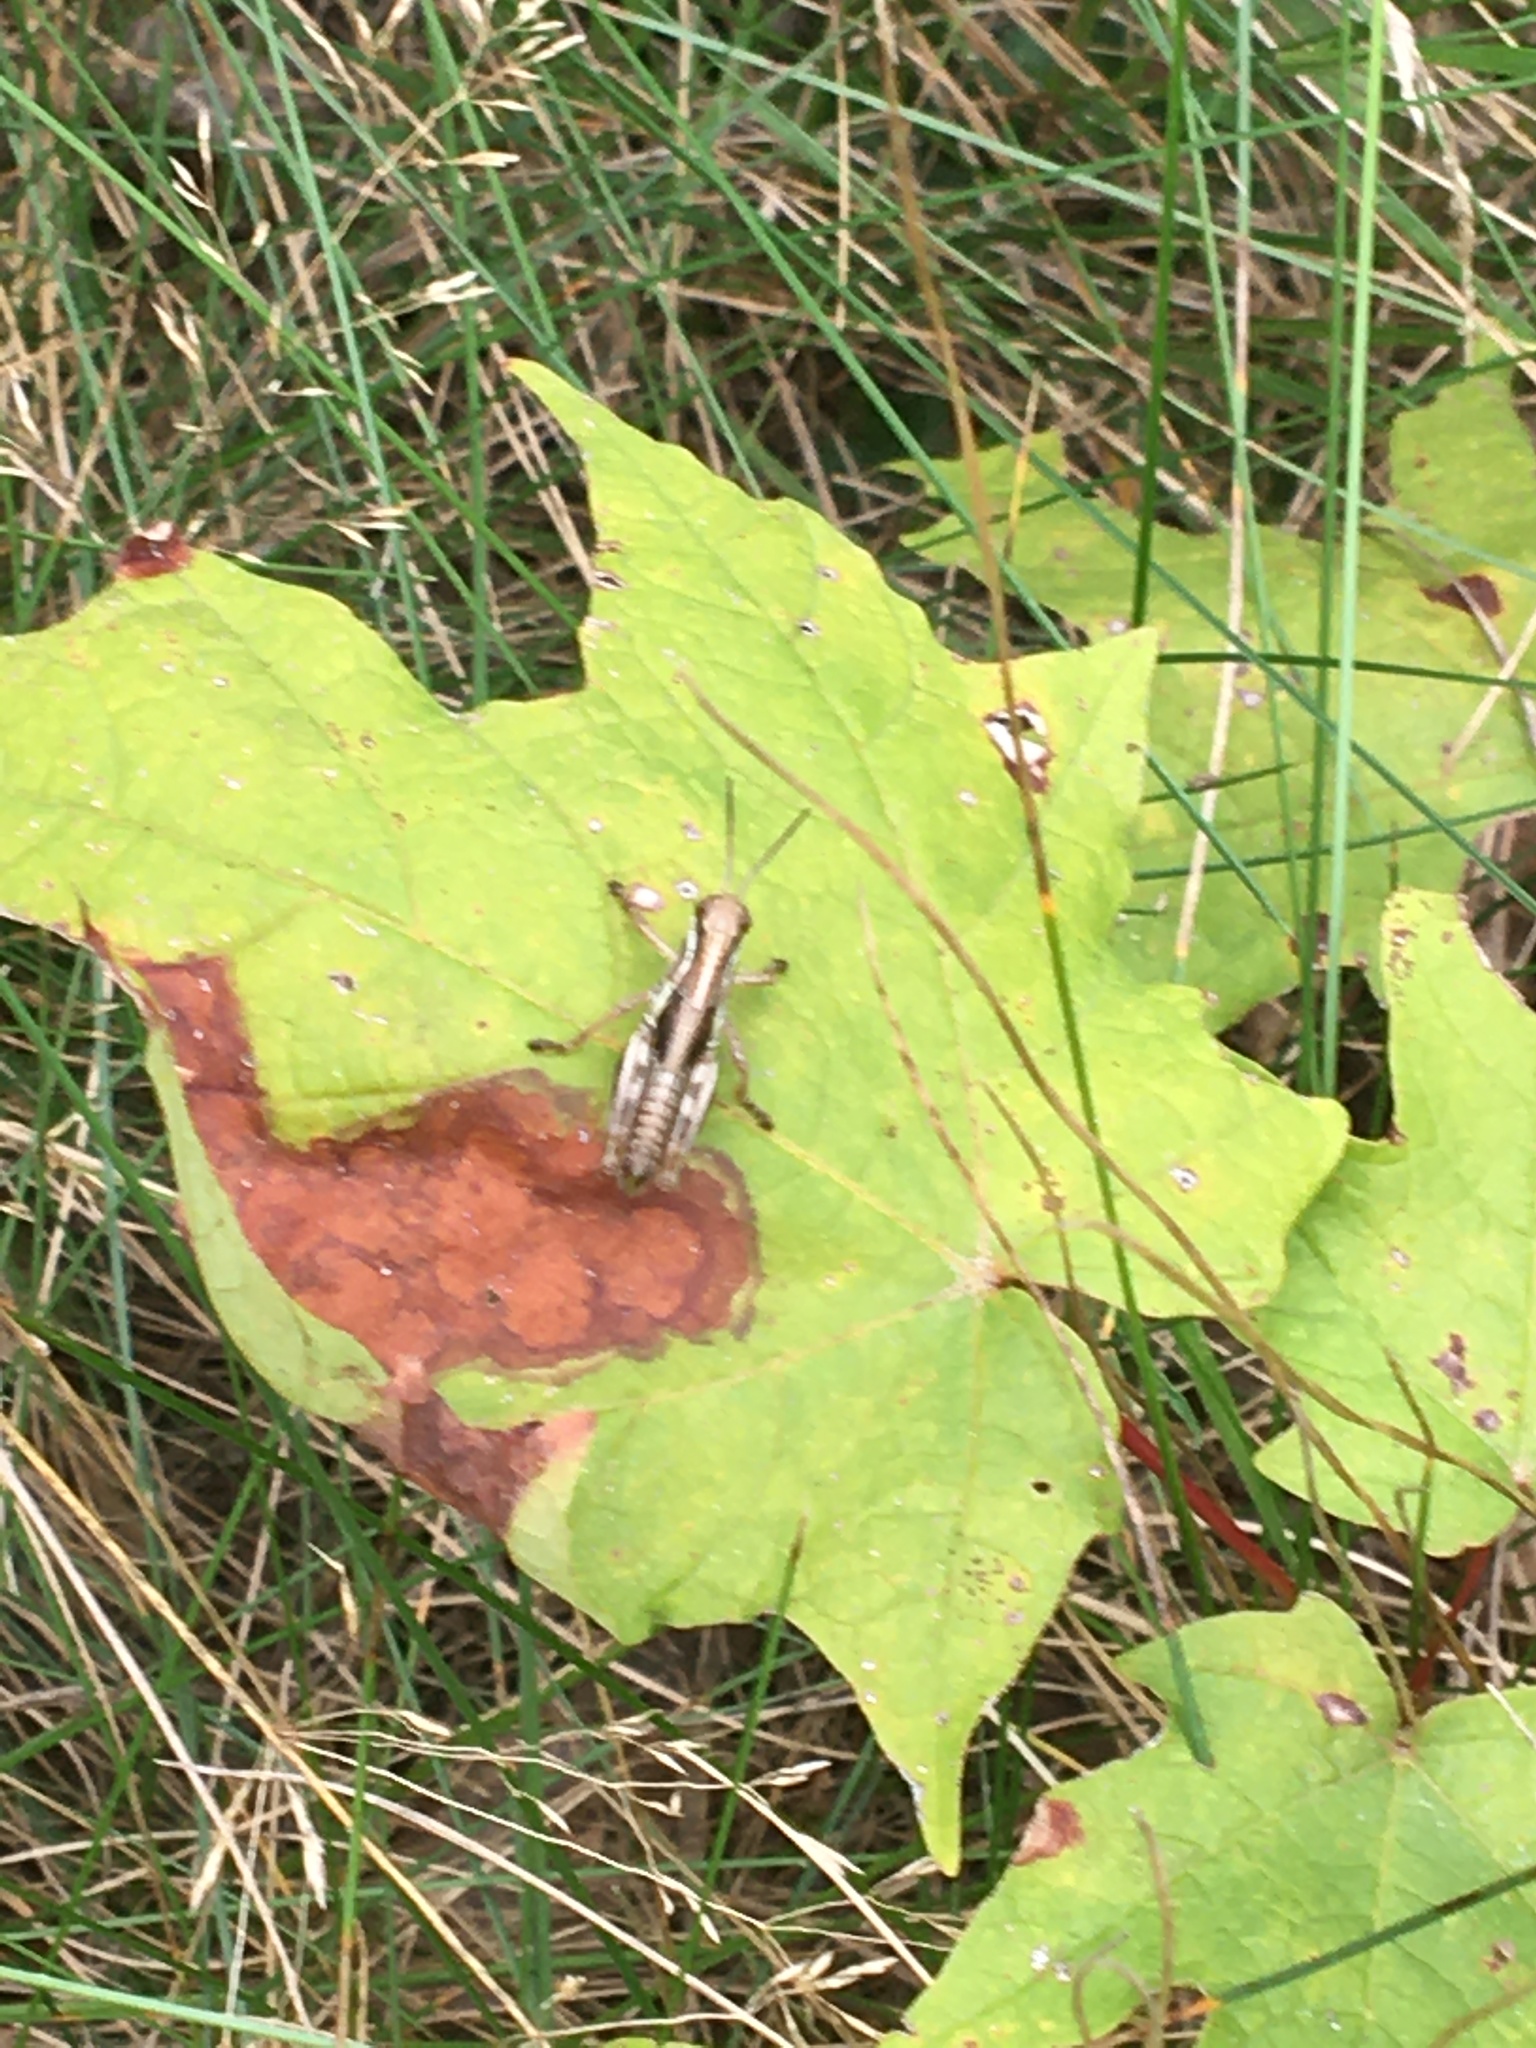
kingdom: Animalia
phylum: Arthropoda
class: Insecta
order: Orthoptera
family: Acrididae
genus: Melanoplus
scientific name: Melanoplus femurrubrum
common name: Red-legged grasshopper
